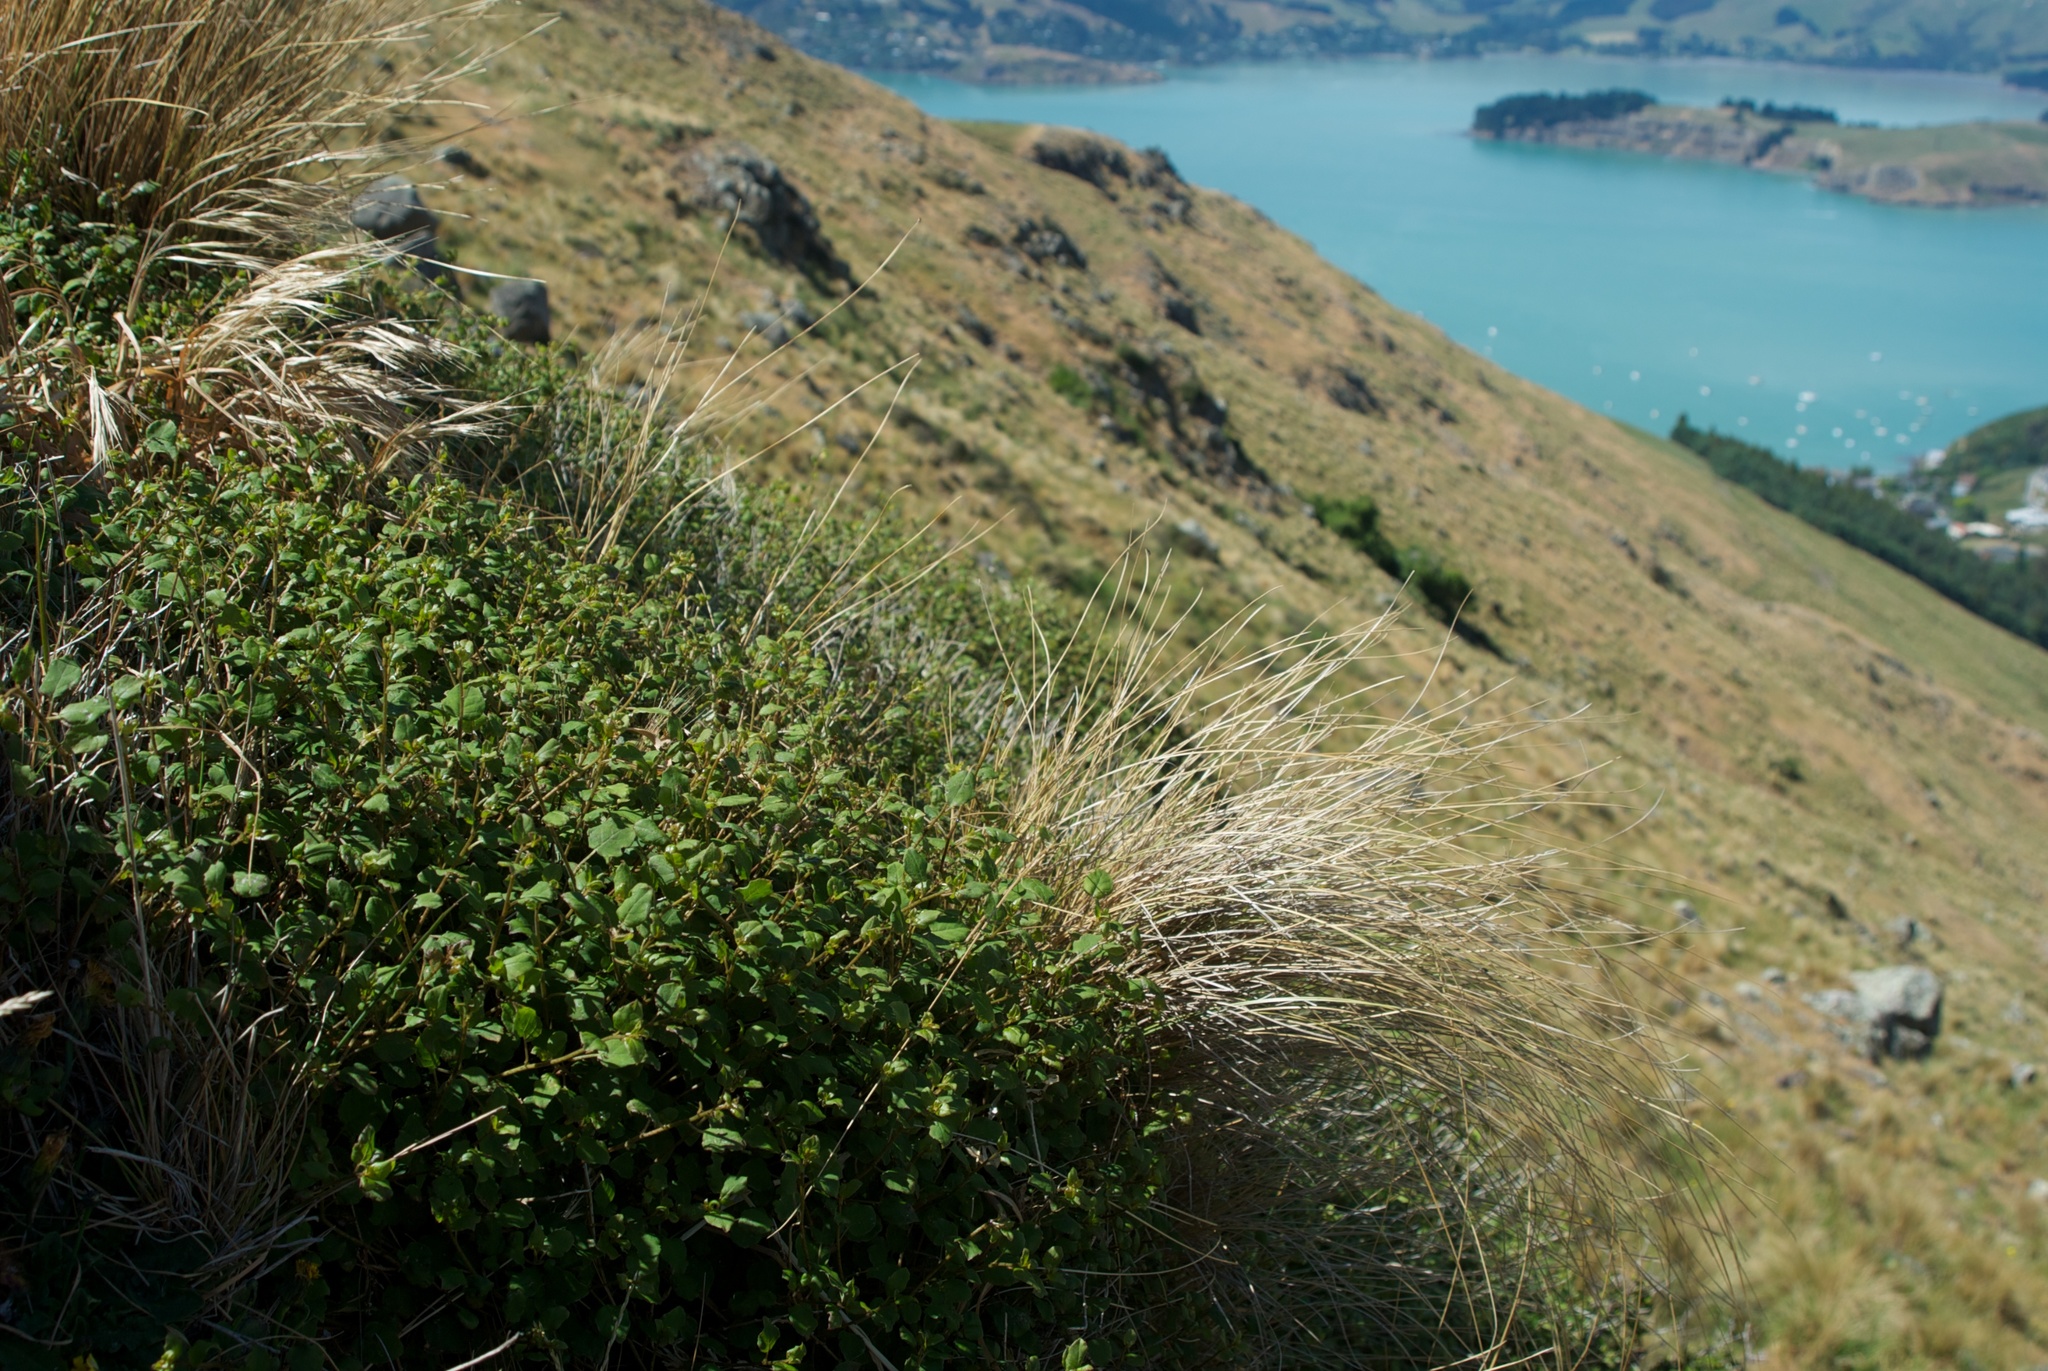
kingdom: Plantae
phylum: Tracheophyta
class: Magnoliopsida
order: Myrtales
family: Onagraceae
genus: Fuchsia
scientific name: Fuchsia colensoi
